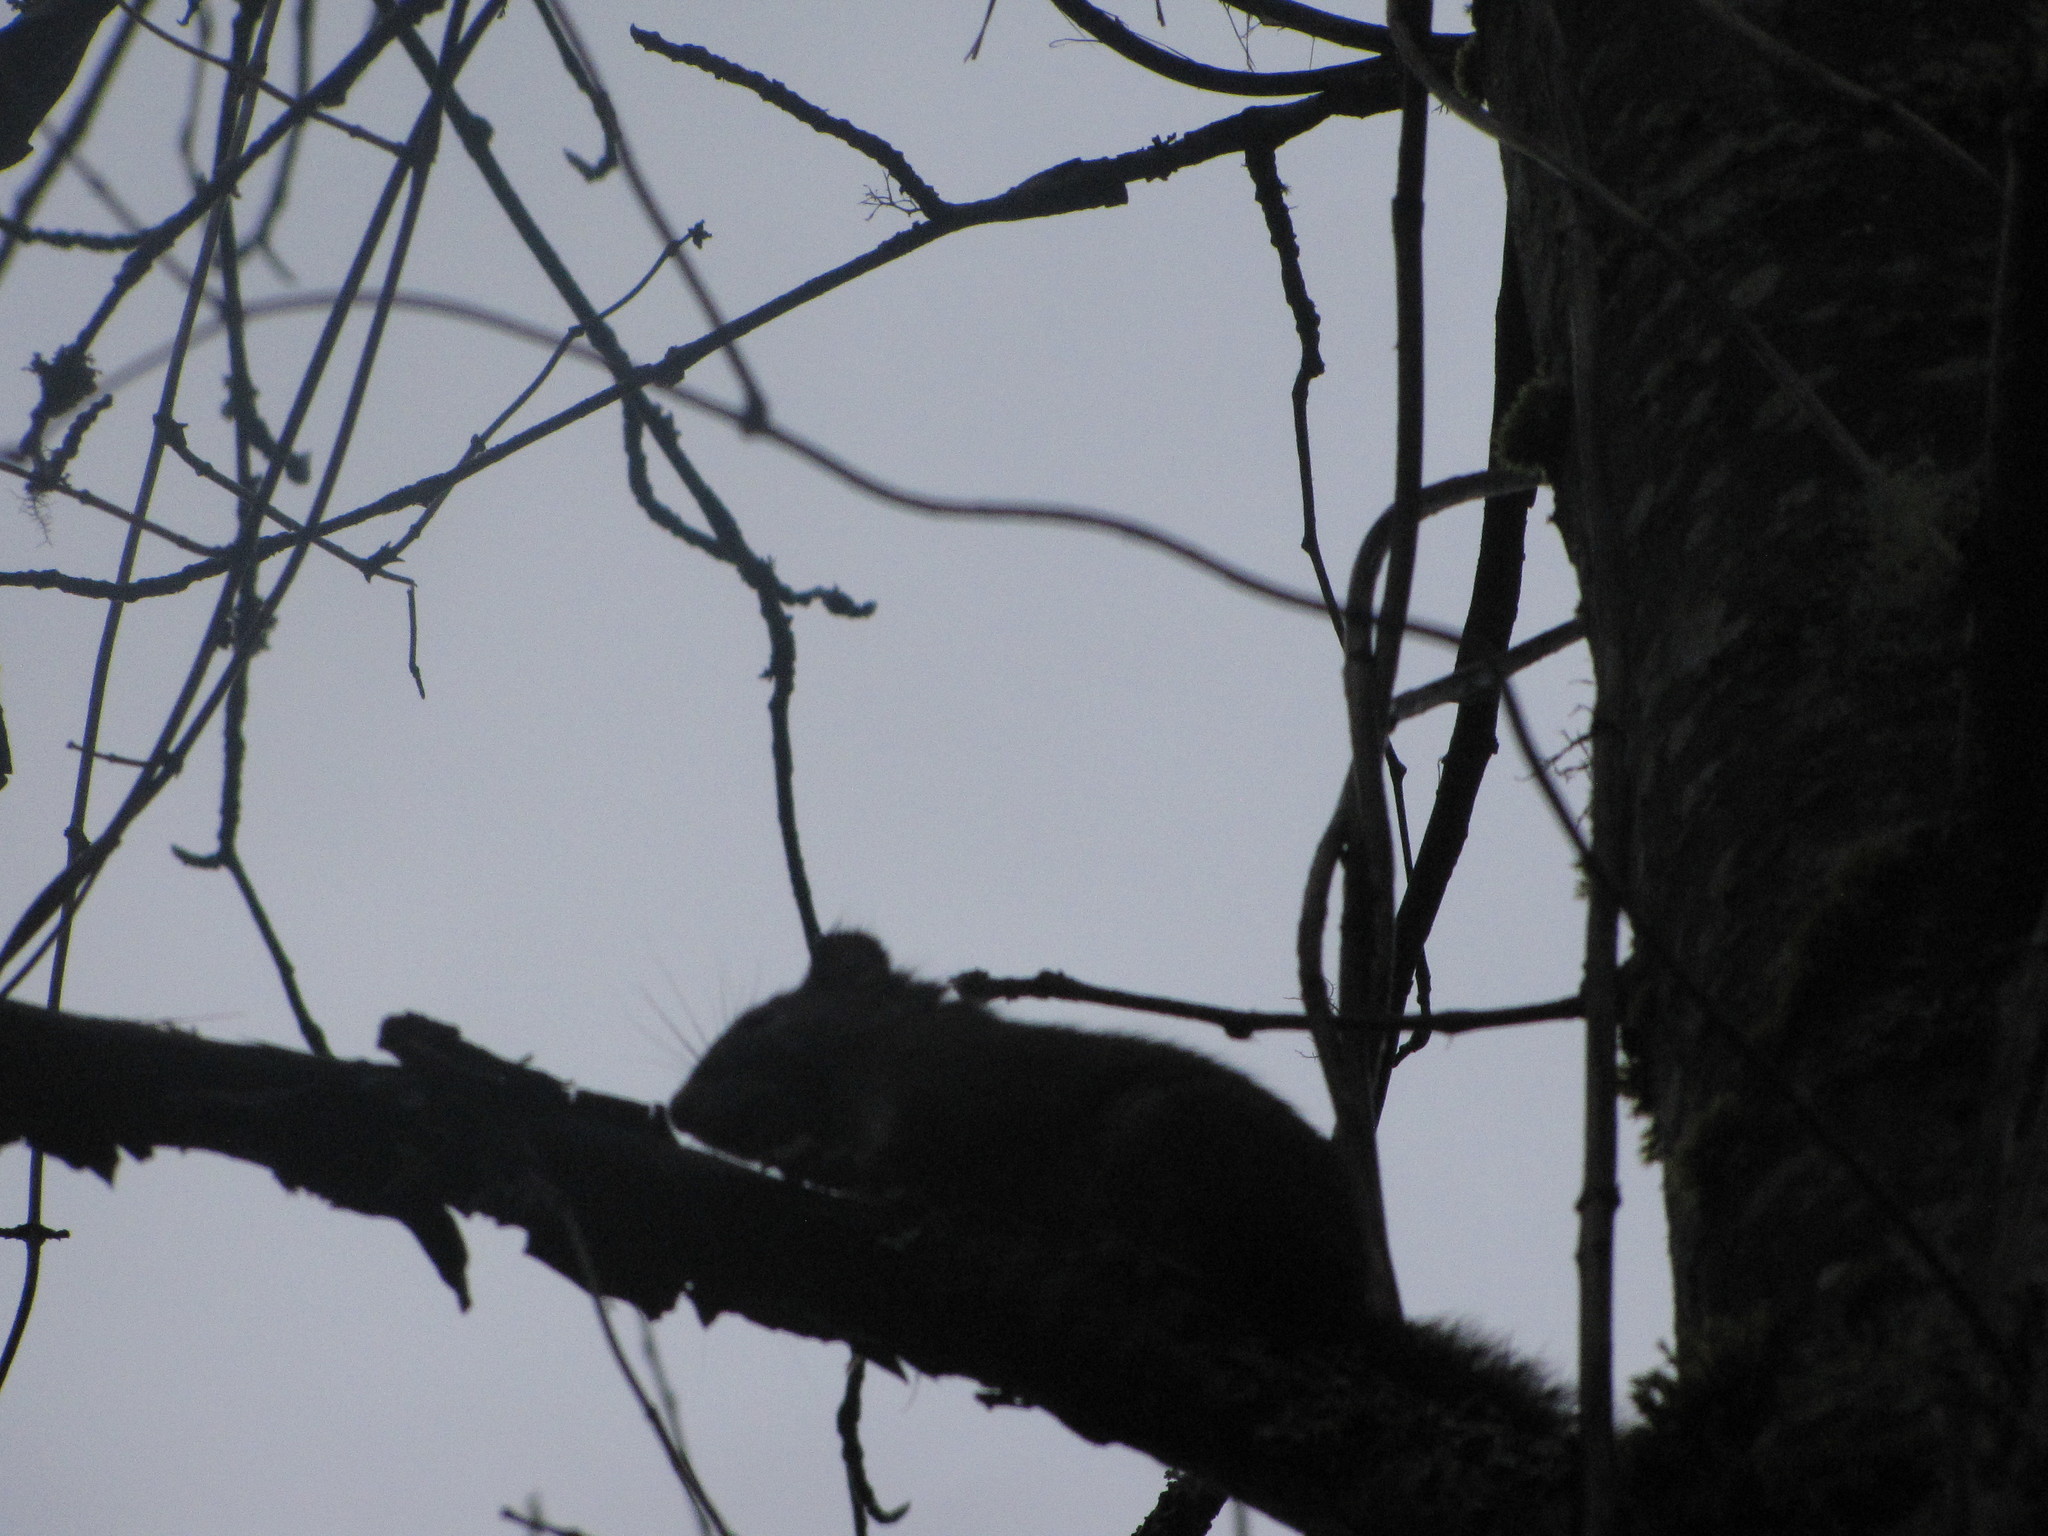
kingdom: Animalia
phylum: Chordata
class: Mammalia
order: Rodentia
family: Sciuridae
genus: Tamiasciurus
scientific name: Tamiasciurus hudsonicus
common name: Red squirrel
